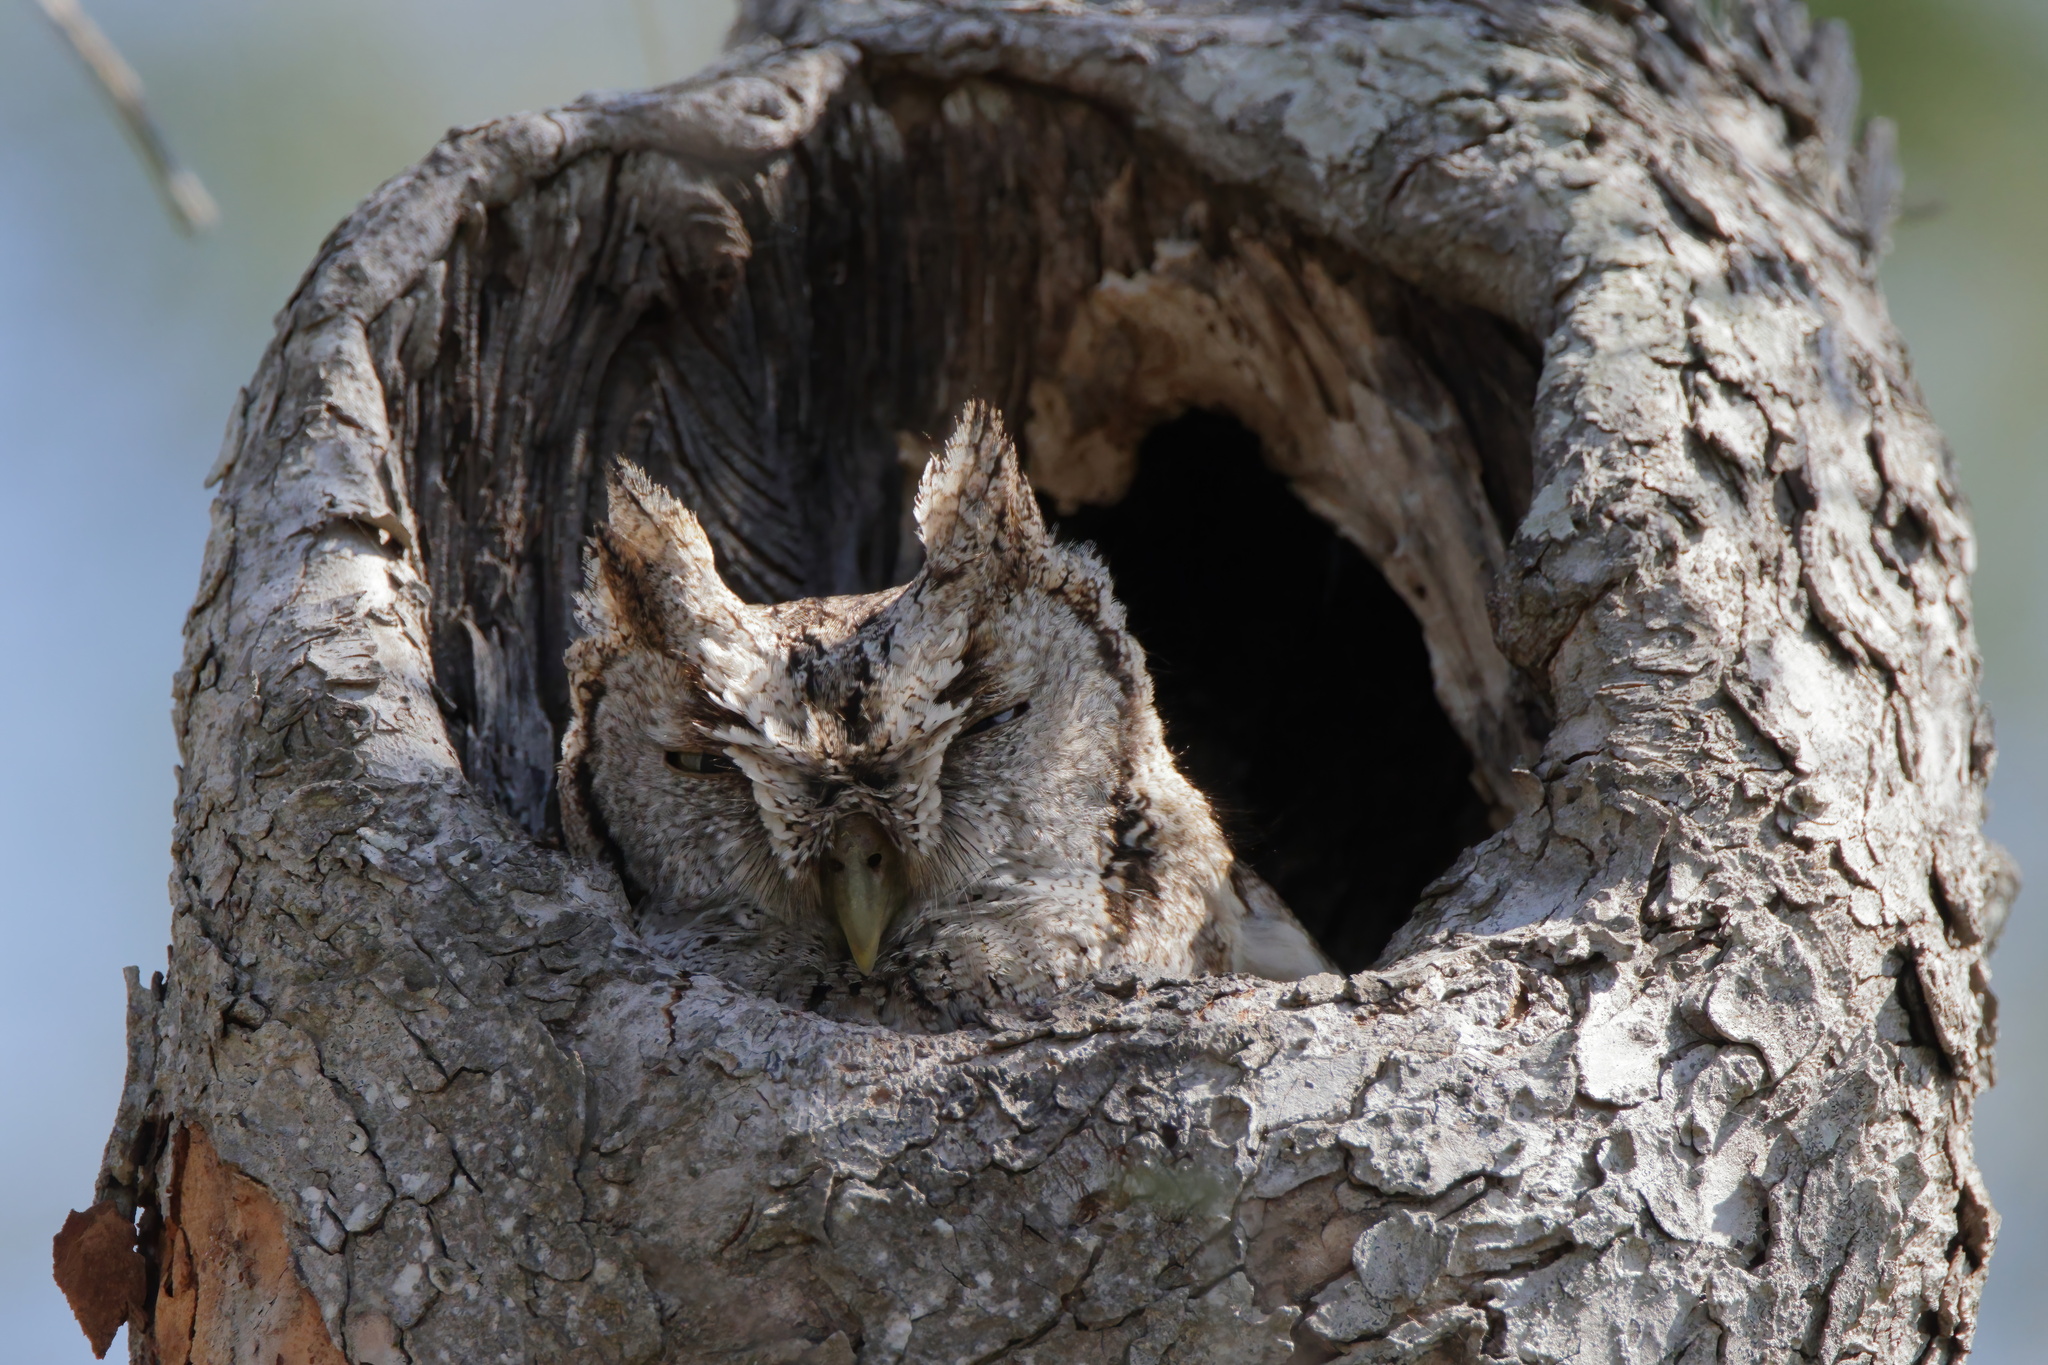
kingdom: Animalia
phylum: Chordata
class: Aves
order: Strigiformes
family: Strigidae
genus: Megascops
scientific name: Megascops asio
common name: Eastern screech-owl
